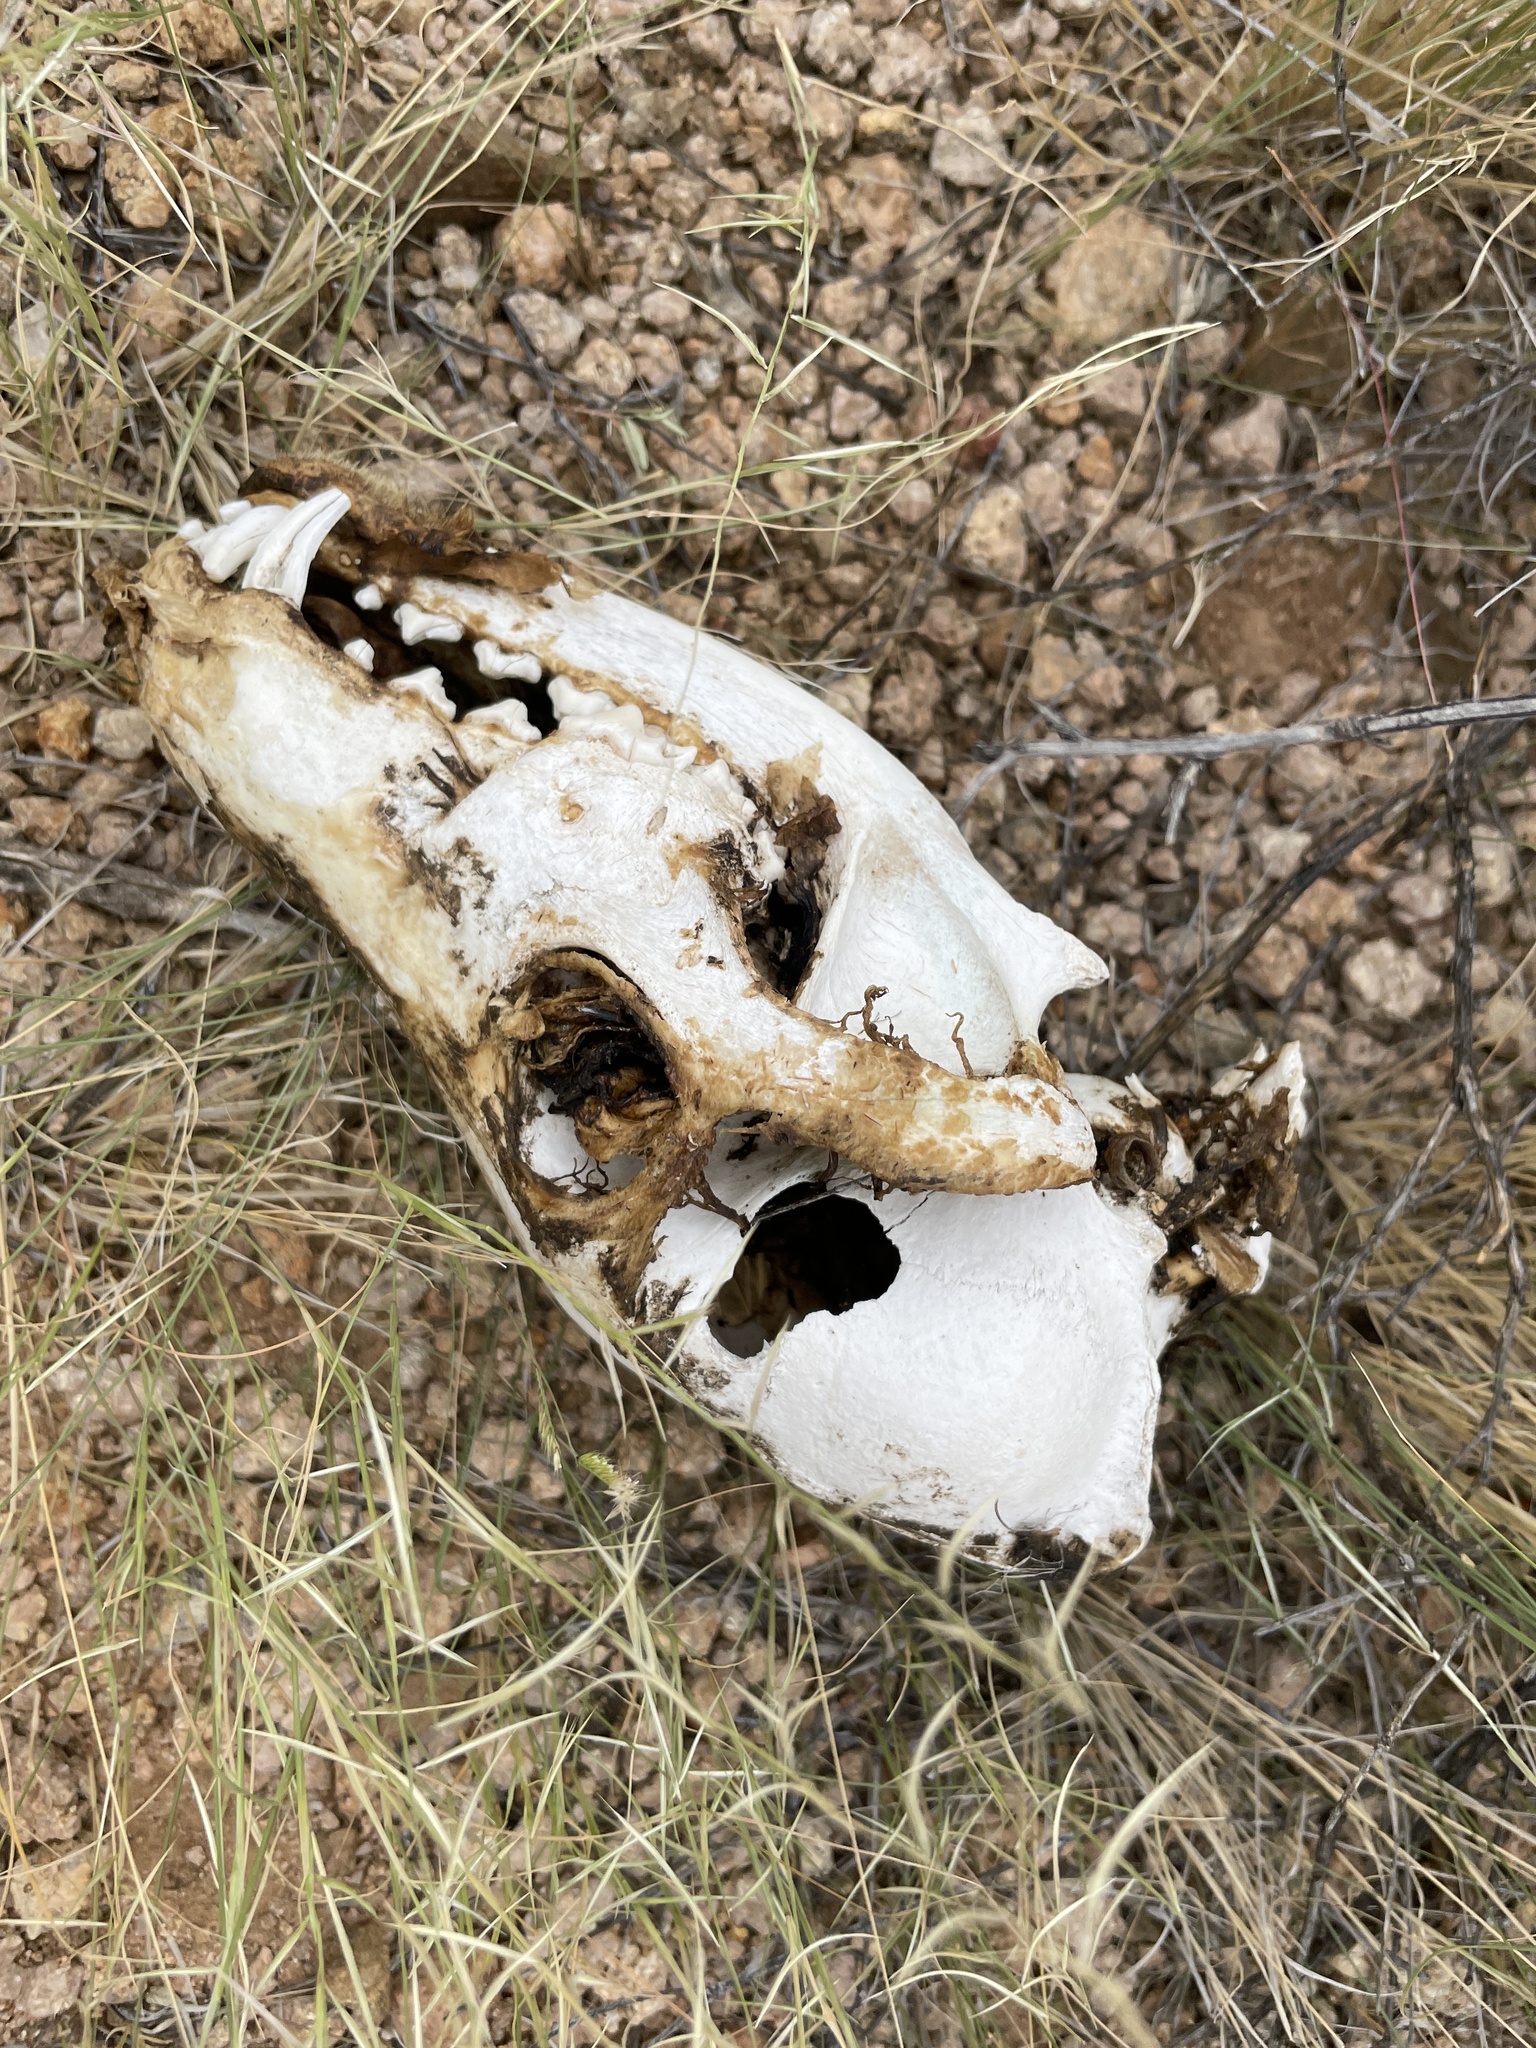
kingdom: Animalia
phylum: Chordata
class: Mammalia
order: Carnivora
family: Canidae
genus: Canis
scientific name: Canis latrans
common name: Coyote
